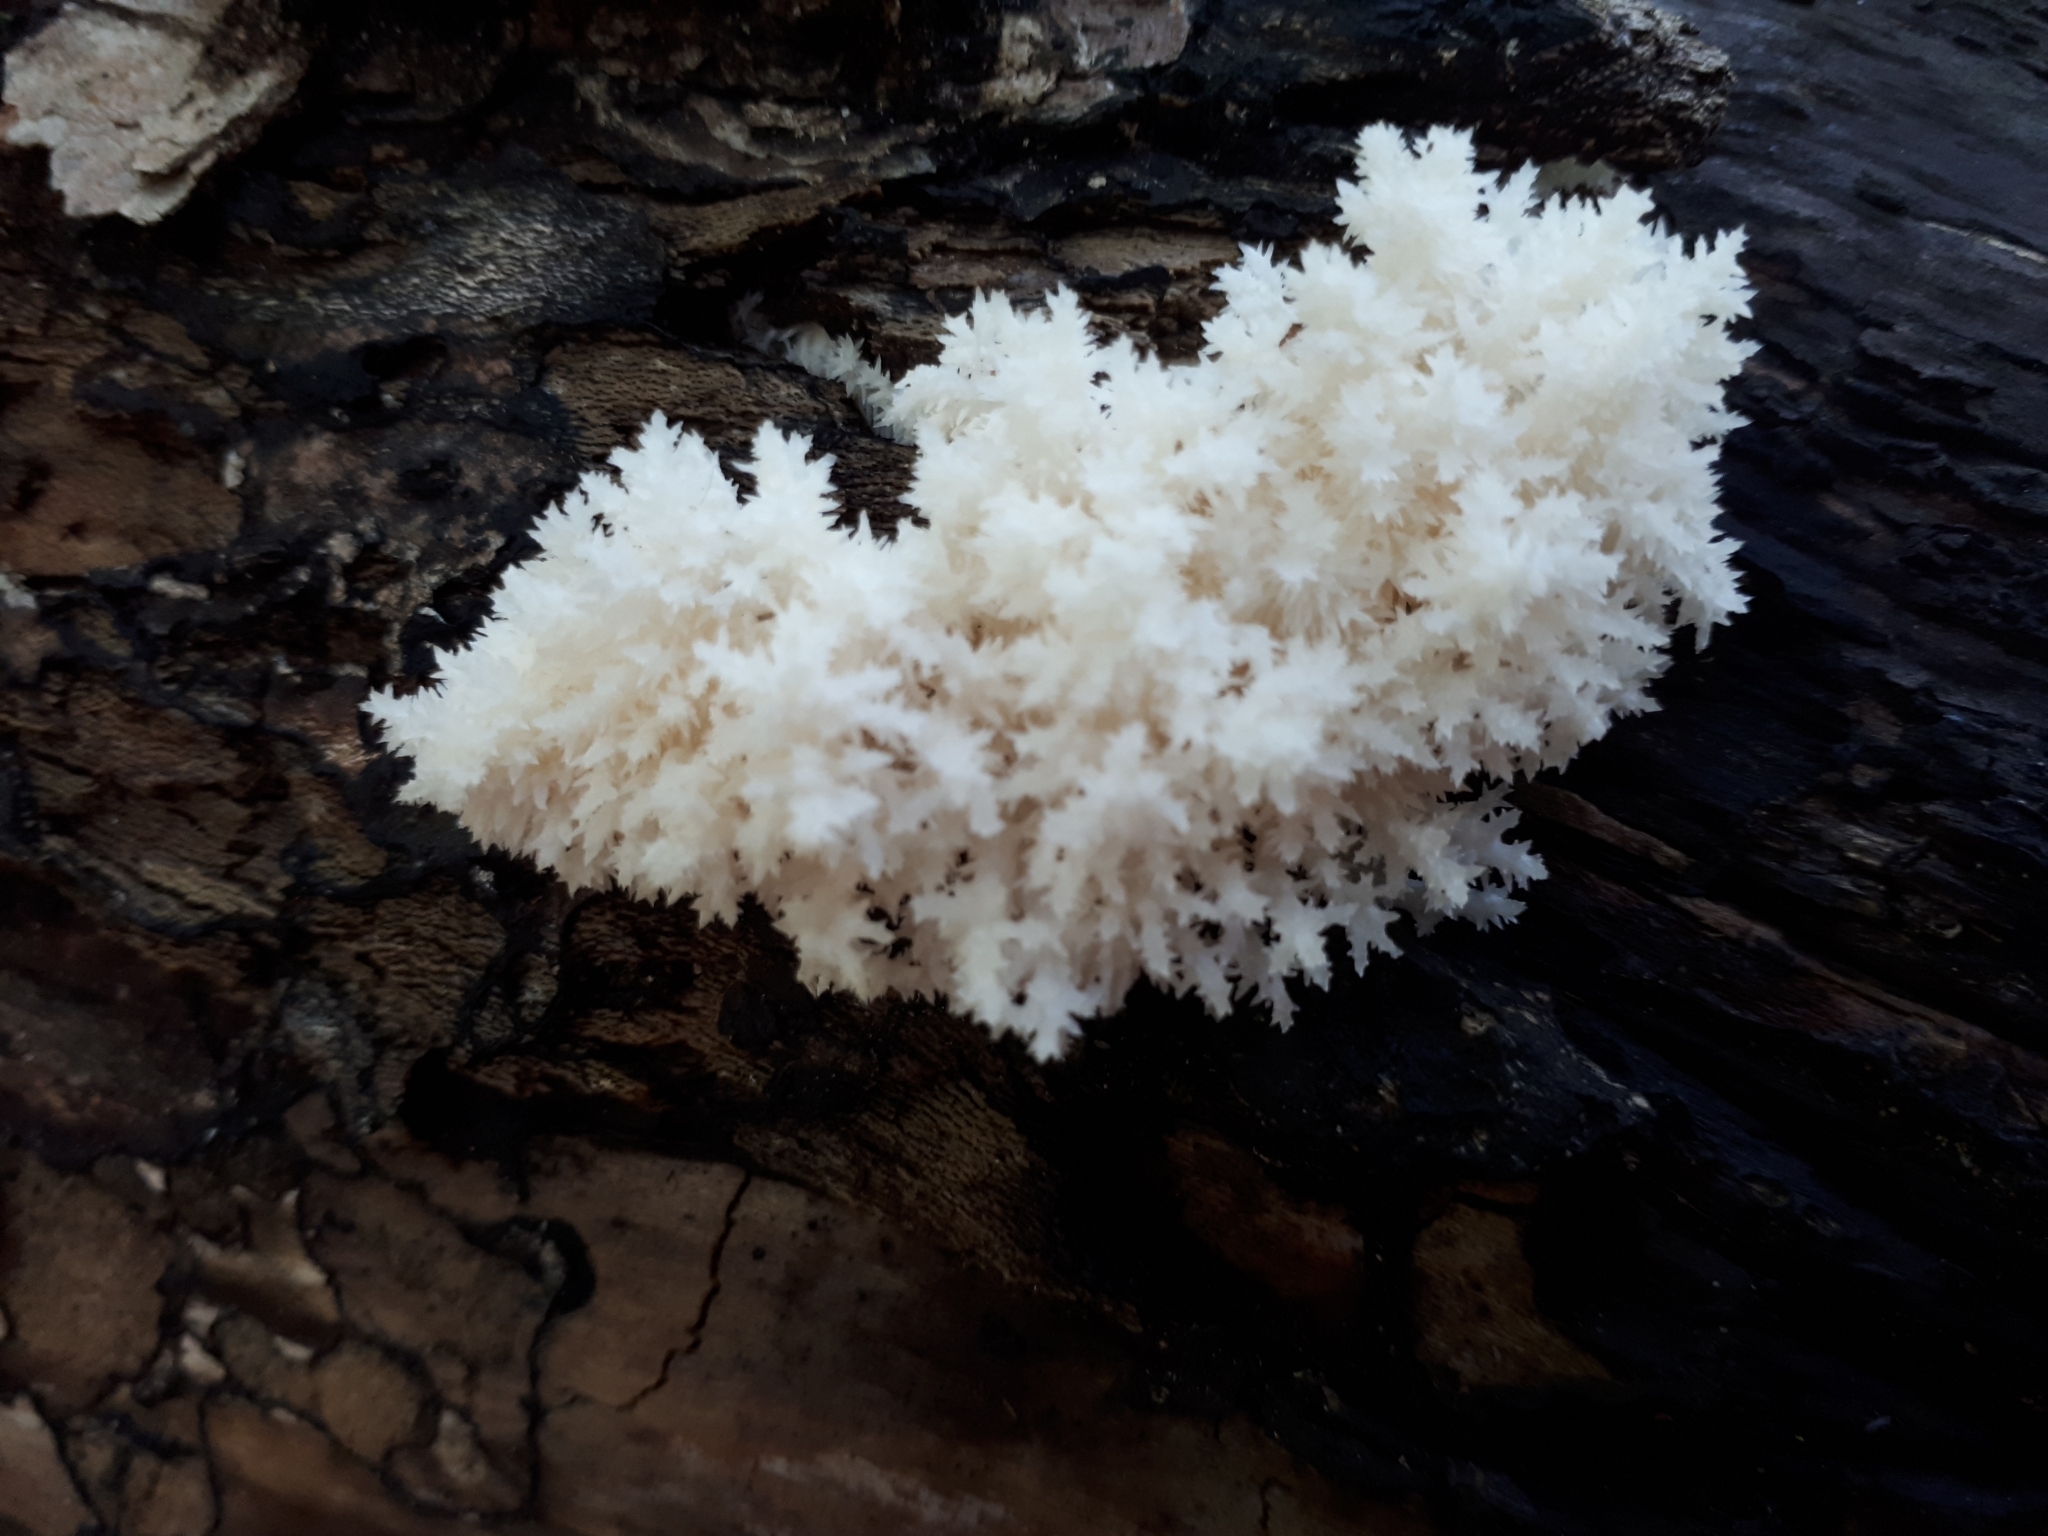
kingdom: Fungi
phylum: Basidiomycota
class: Agaricomycetes
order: Russulales
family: Hericiaceae
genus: Hericium
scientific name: Hericium coralloides
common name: Coral tooth
